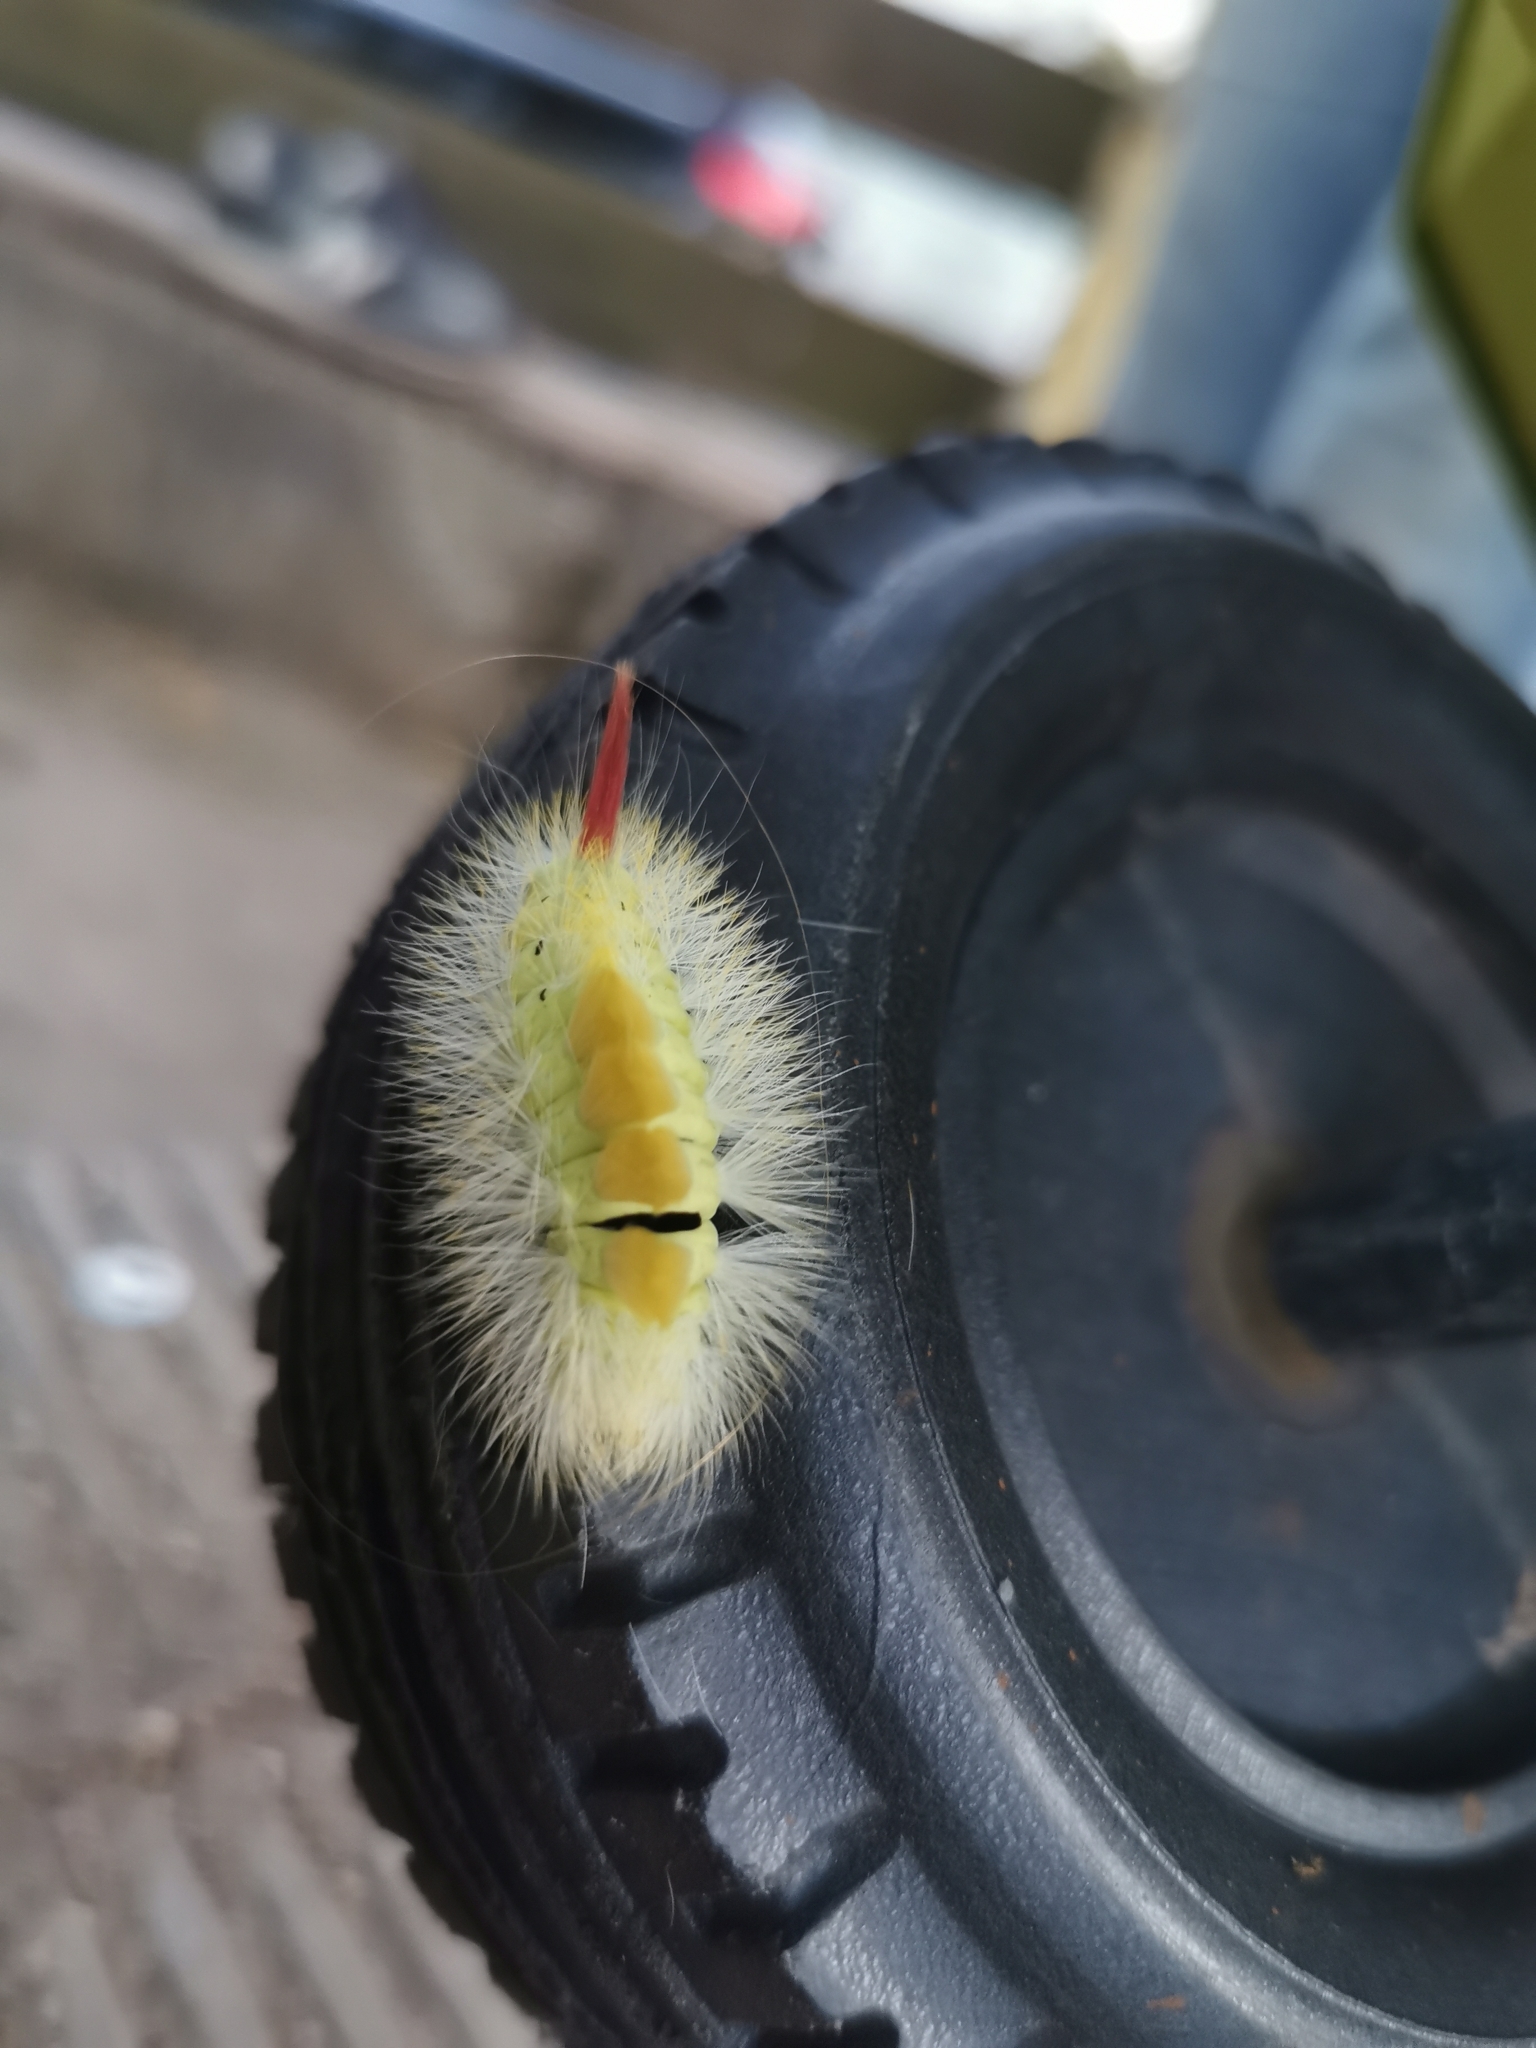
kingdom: Animalia
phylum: Arthropoda
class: Insecta
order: Lepidoptera
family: Erebidae
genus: Calliteara
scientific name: Calliteara pudibunda
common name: Pale tussock
